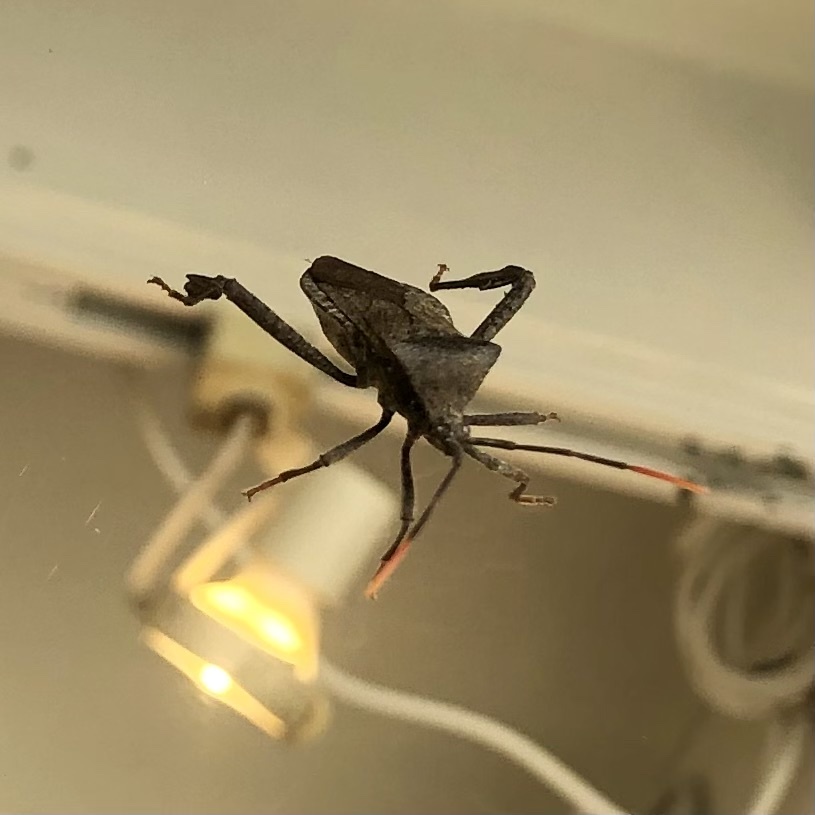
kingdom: Animalia
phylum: Arthropoda
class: Insecta
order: Hemiptera
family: Coreidae
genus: Acanthocephala
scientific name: Acanthocephala terminalis
